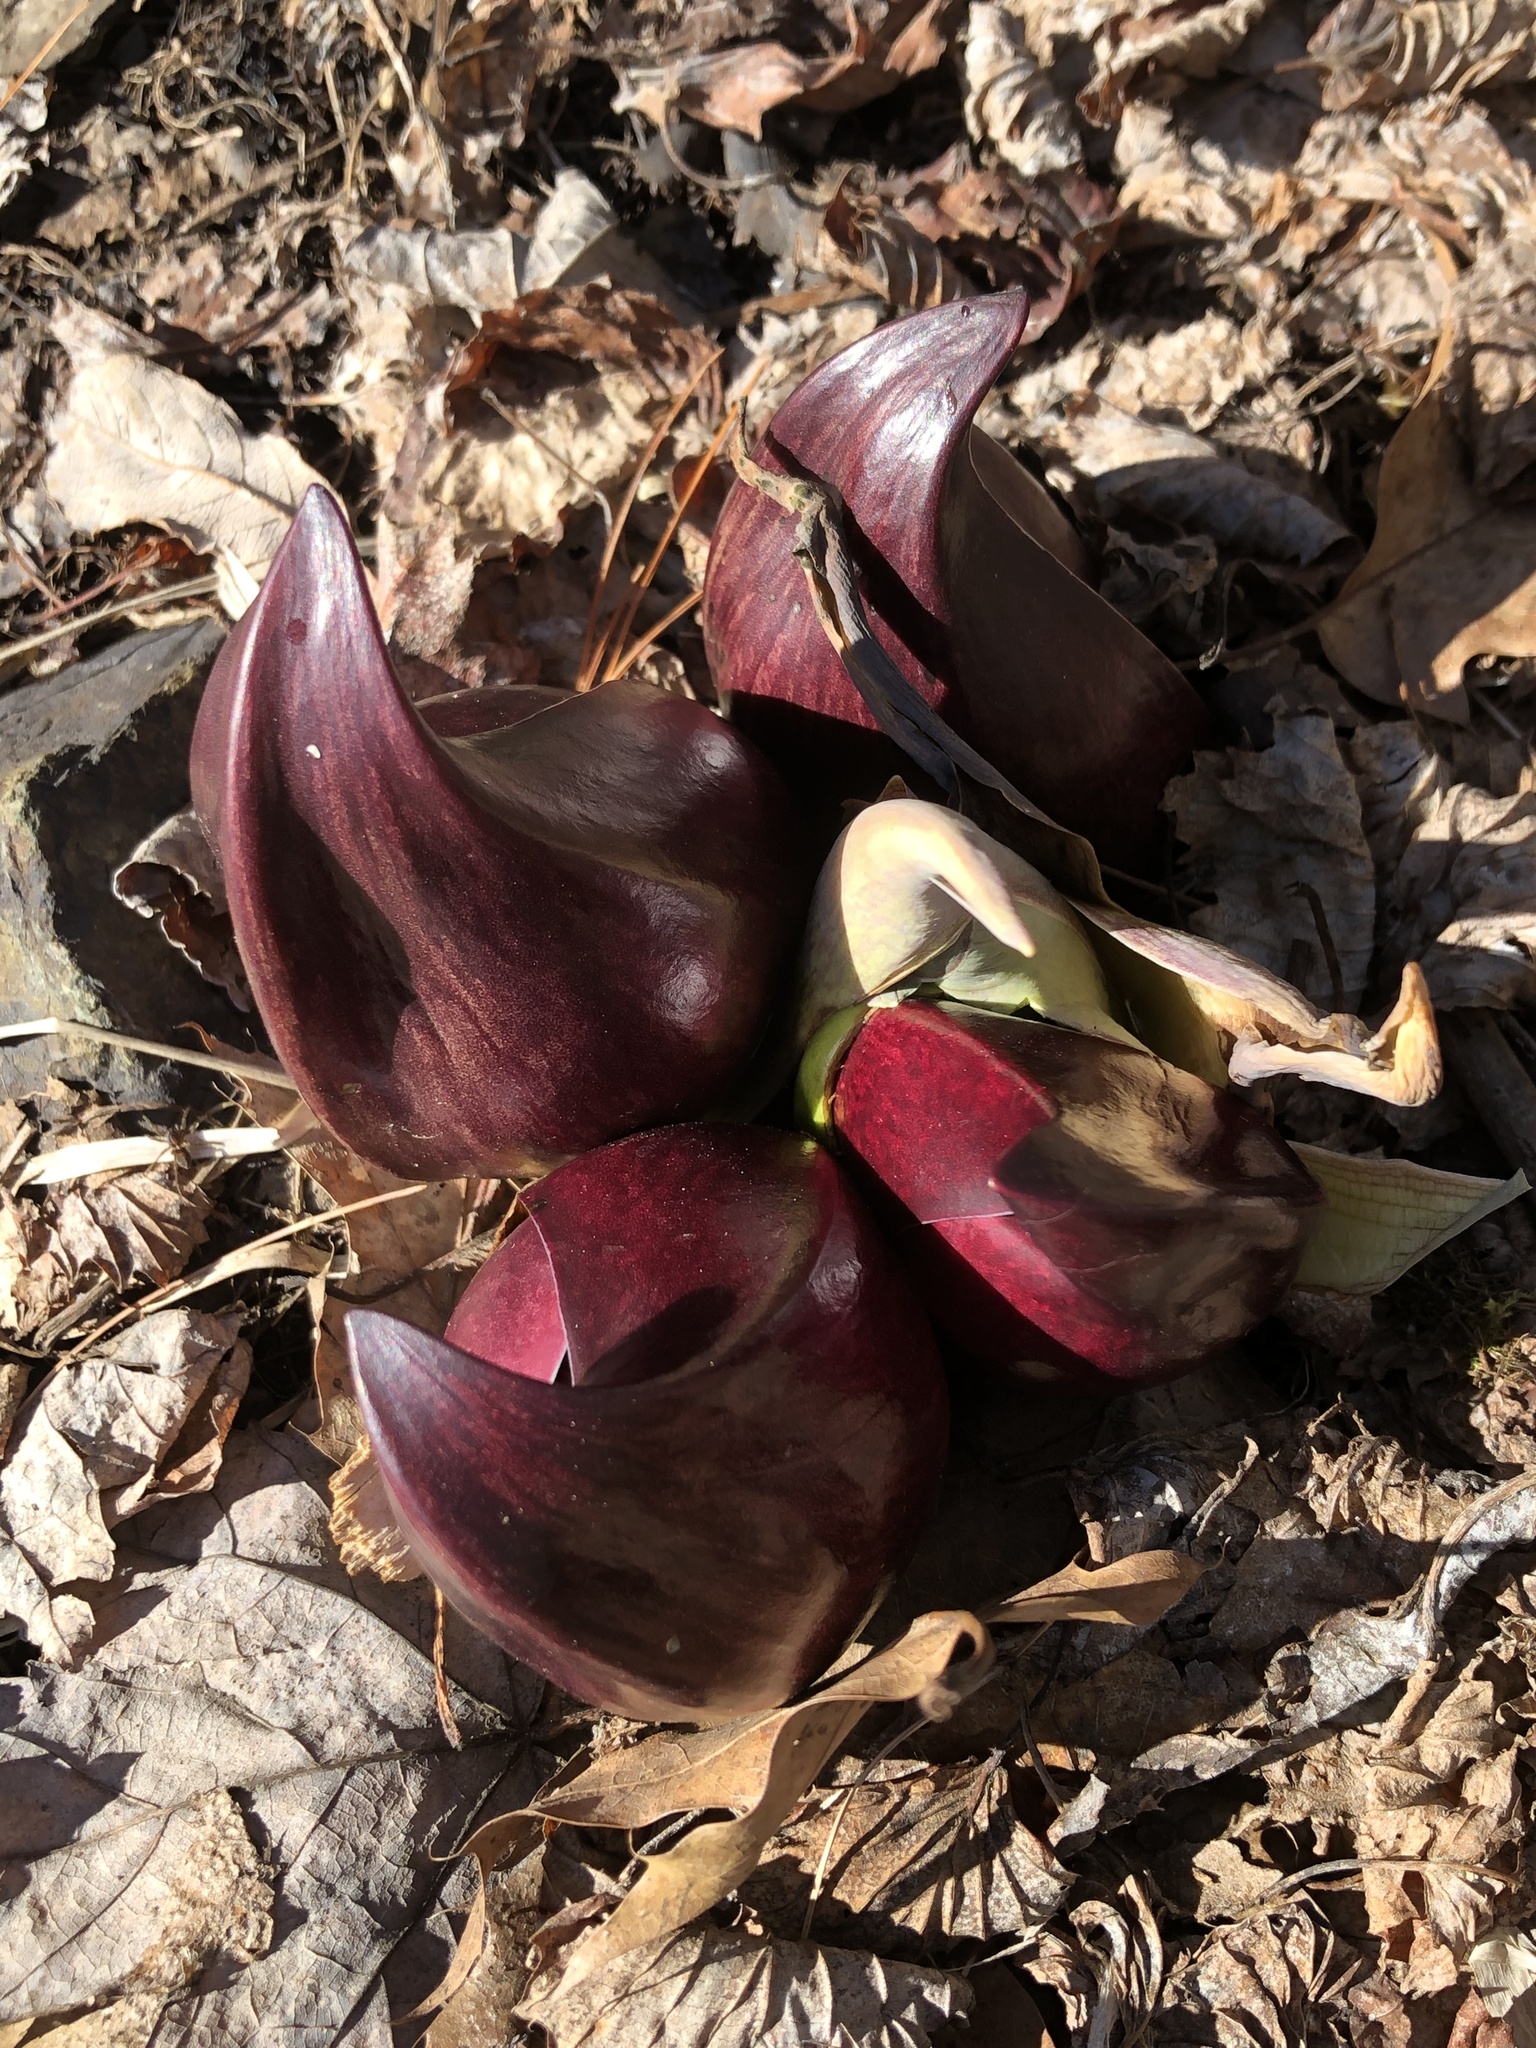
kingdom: Plantae
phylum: Tracheophyta
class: Liliopsida
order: Alismatales
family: Araceae
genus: Symplocarpus
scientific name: Symplocarpus foetidus
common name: Eastern skunk cabbage
